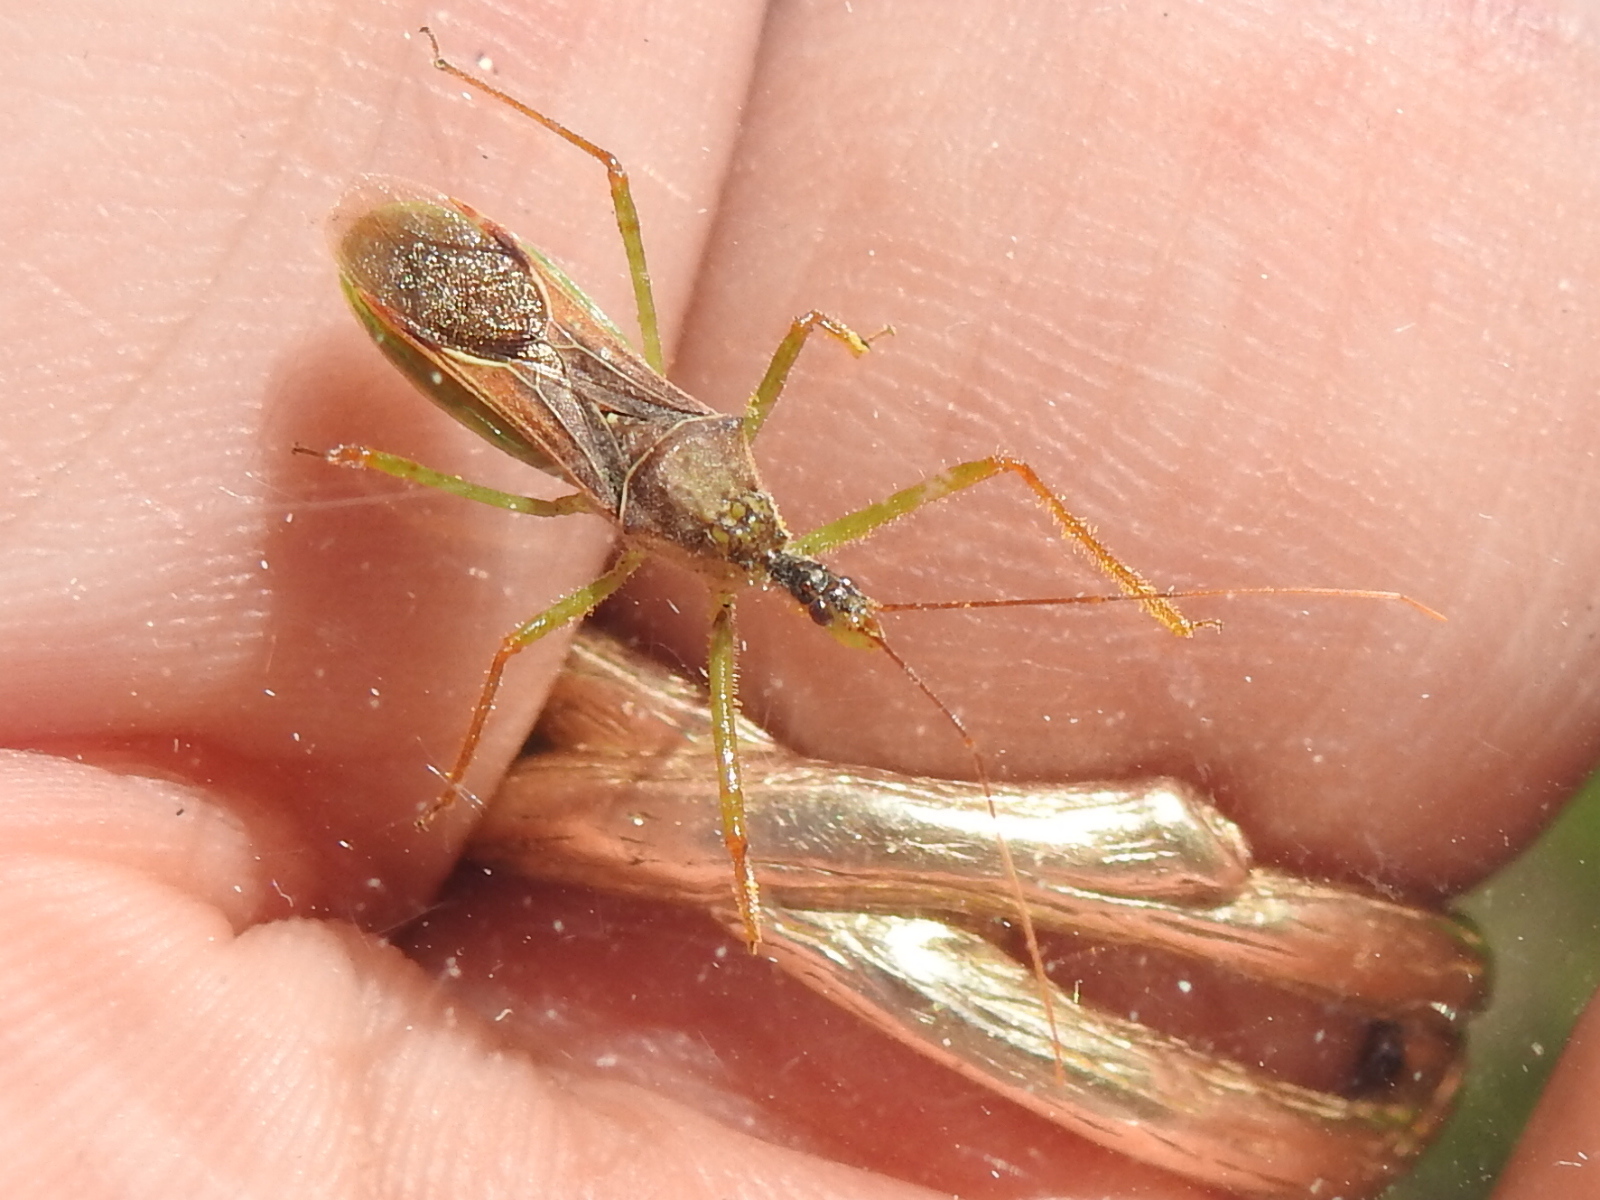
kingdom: Animalia
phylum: Arthropoda
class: Insecta
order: Hemiptera
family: Reduviidae
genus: Zelus
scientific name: Zelus renardii
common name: Assassin bug
